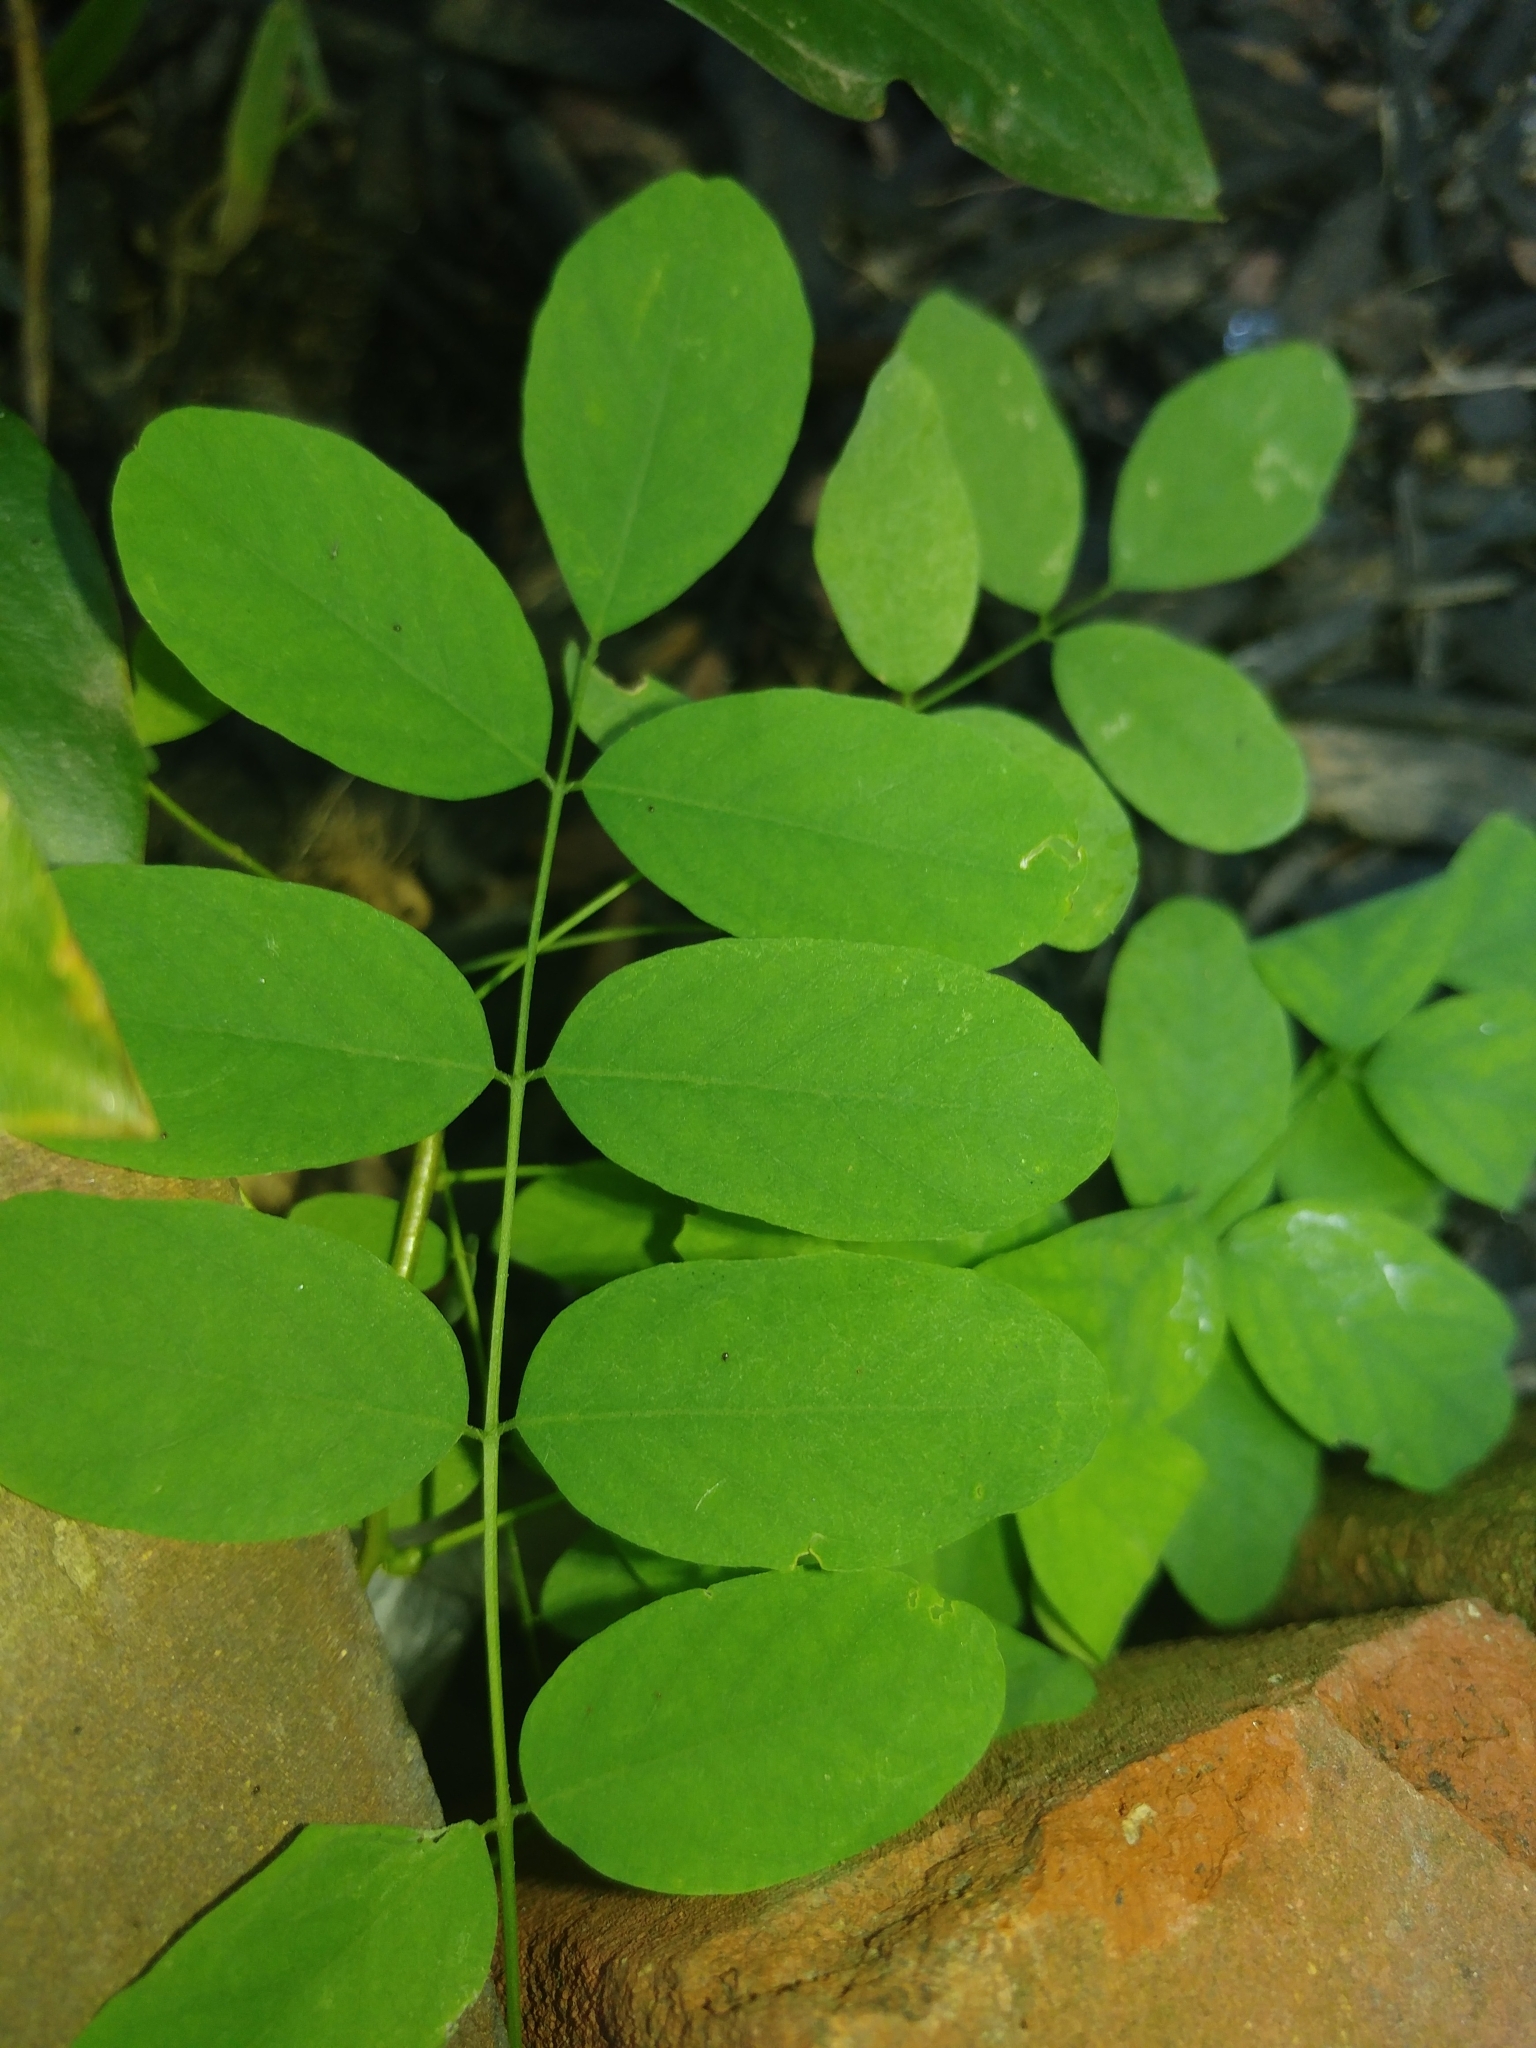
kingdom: Plantae
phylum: Tracheophyta
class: Magnoliopsida
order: Fabales
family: Fabaceae
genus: Robinia
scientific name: Robinia pseudoacacia
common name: Black locust
